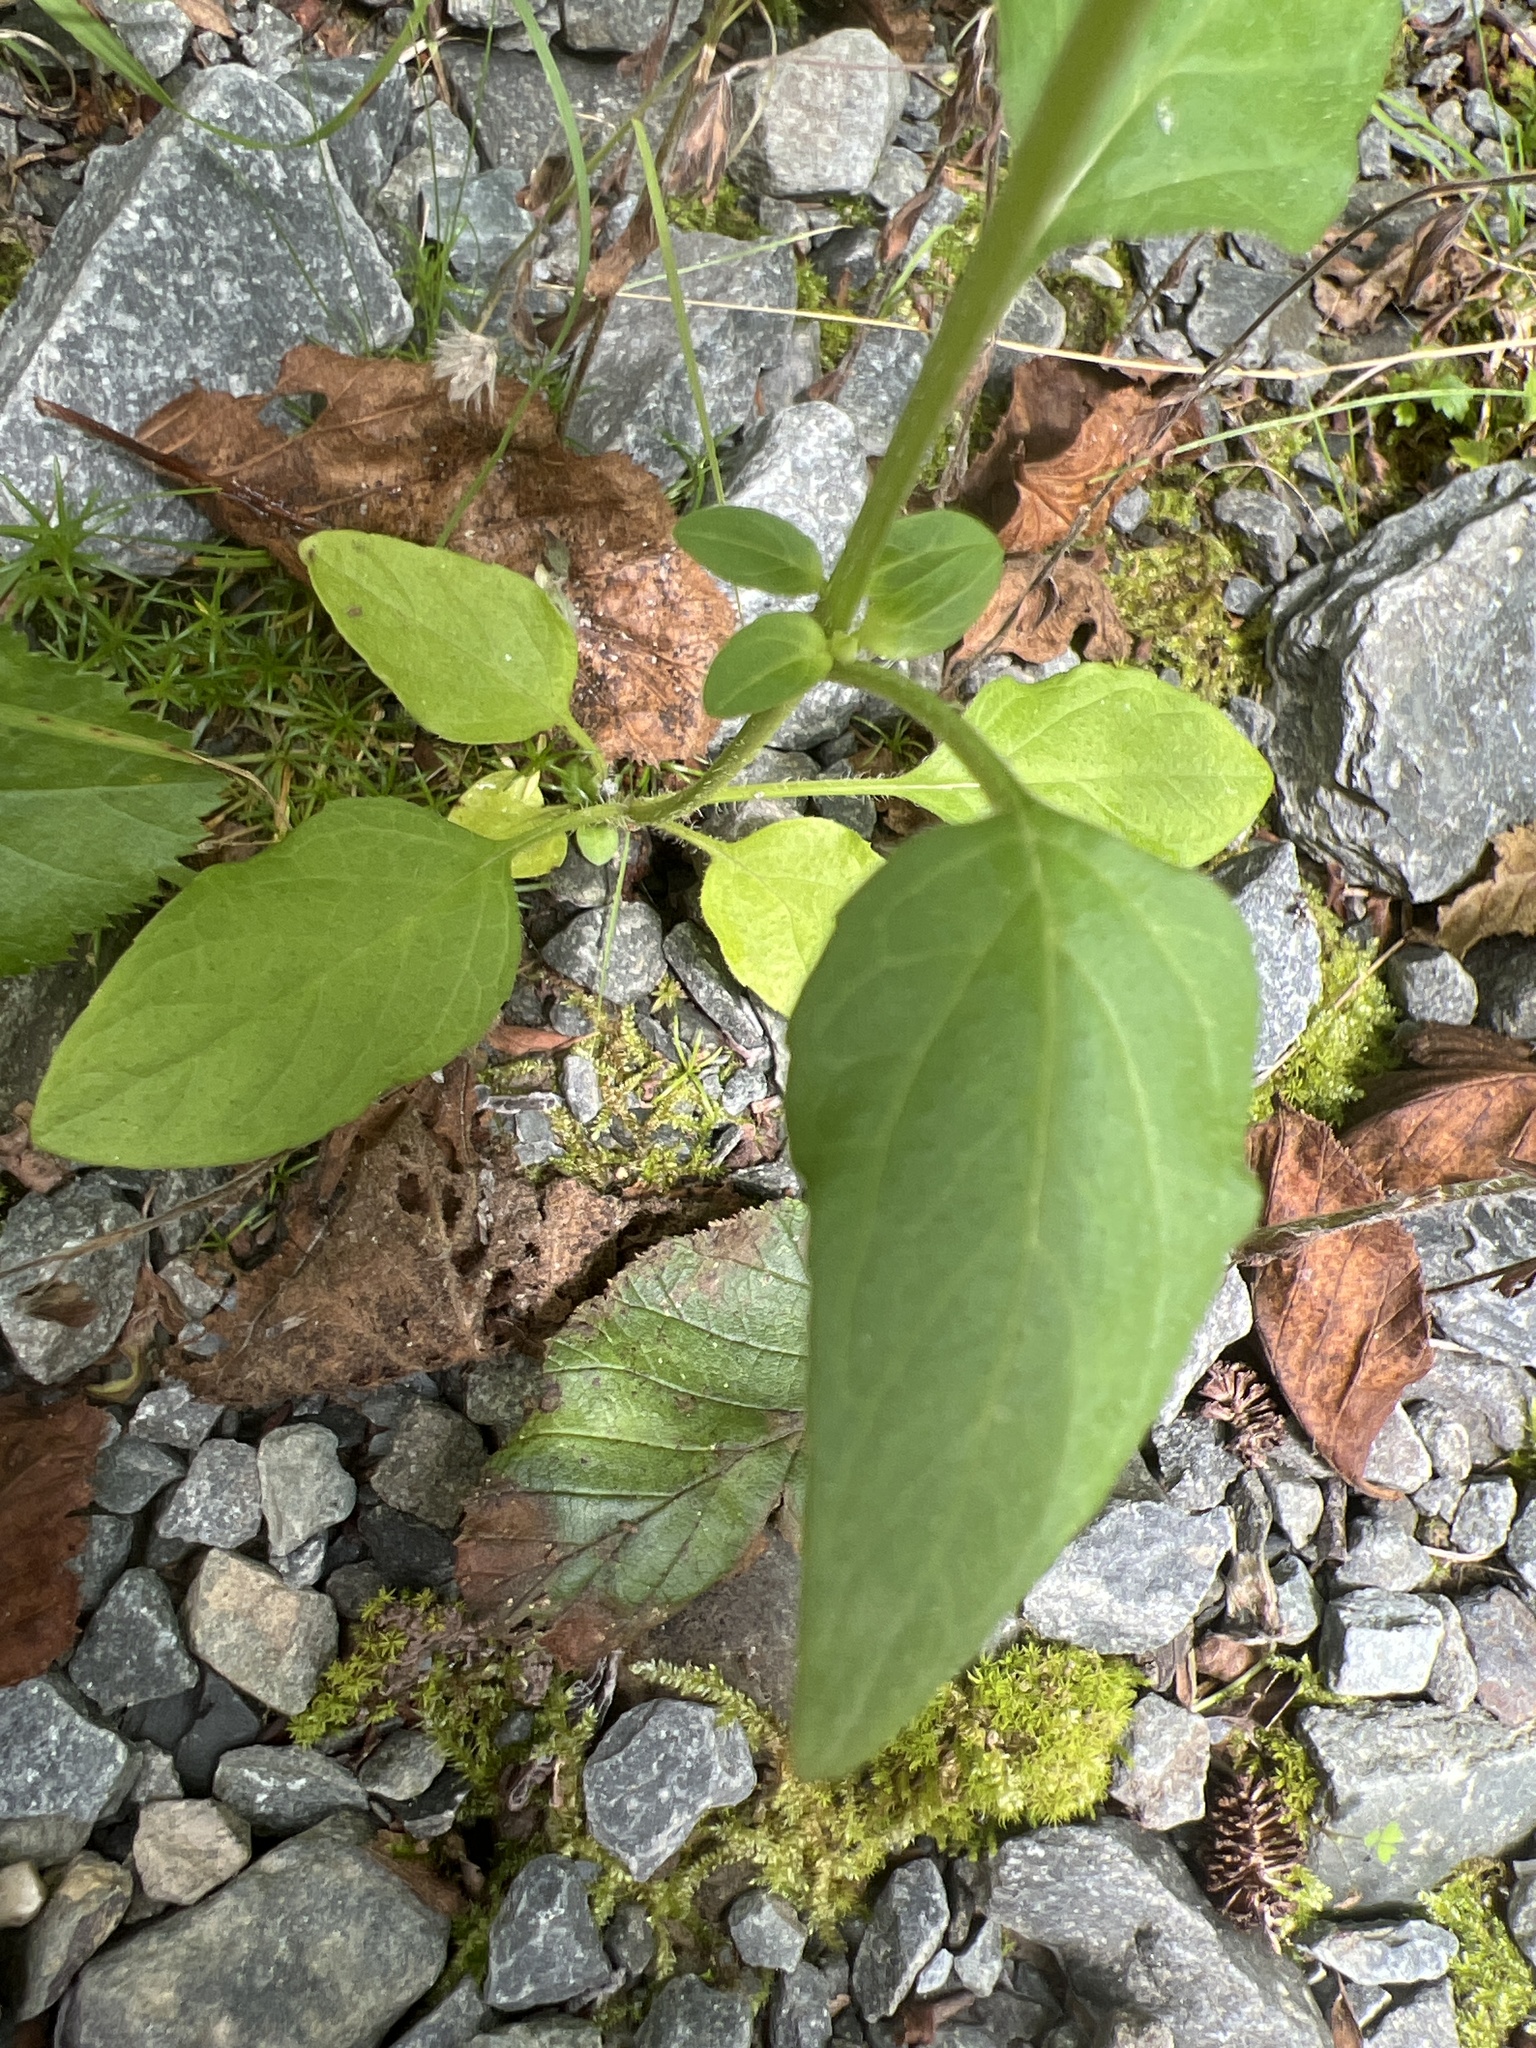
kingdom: Plantae
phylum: Tracheophyta
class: Magnoliopsida
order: Lamiales
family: Lamiaceae
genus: Prunella
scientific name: Prunella vulgaris
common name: Heal-all
